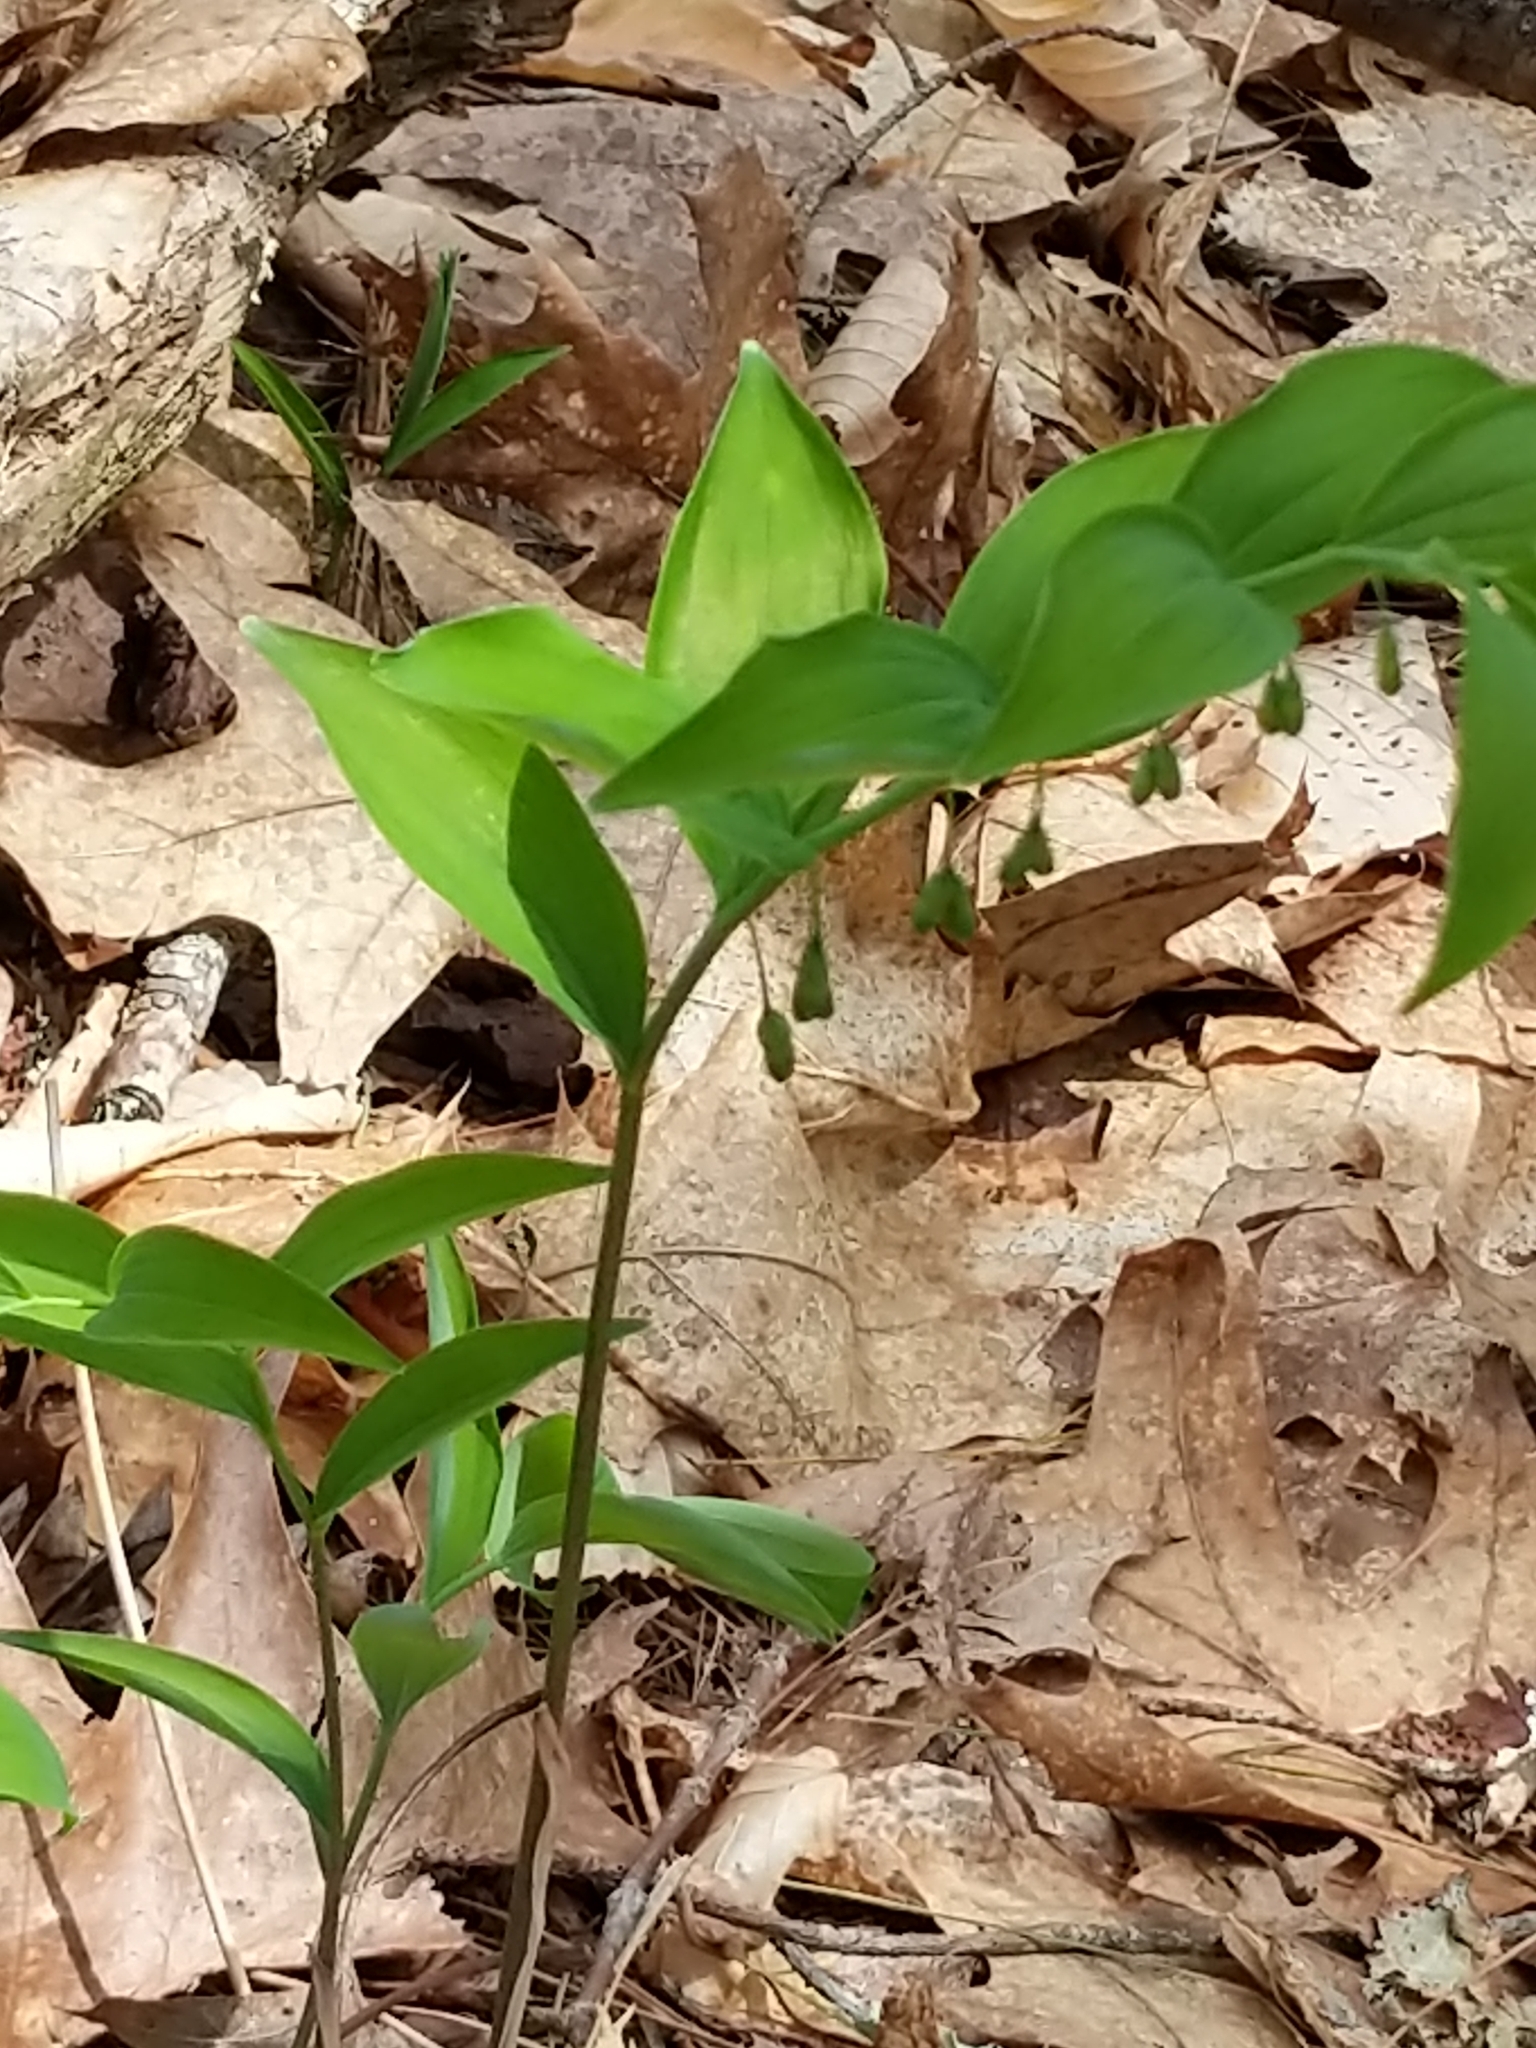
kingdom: Plantae
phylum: Tracheophyta
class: Liliopsida
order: Asparagales
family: Asparagaceae
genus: Polygonatum
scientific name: Polygonatum pubescens
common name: Downy solomon's seal
